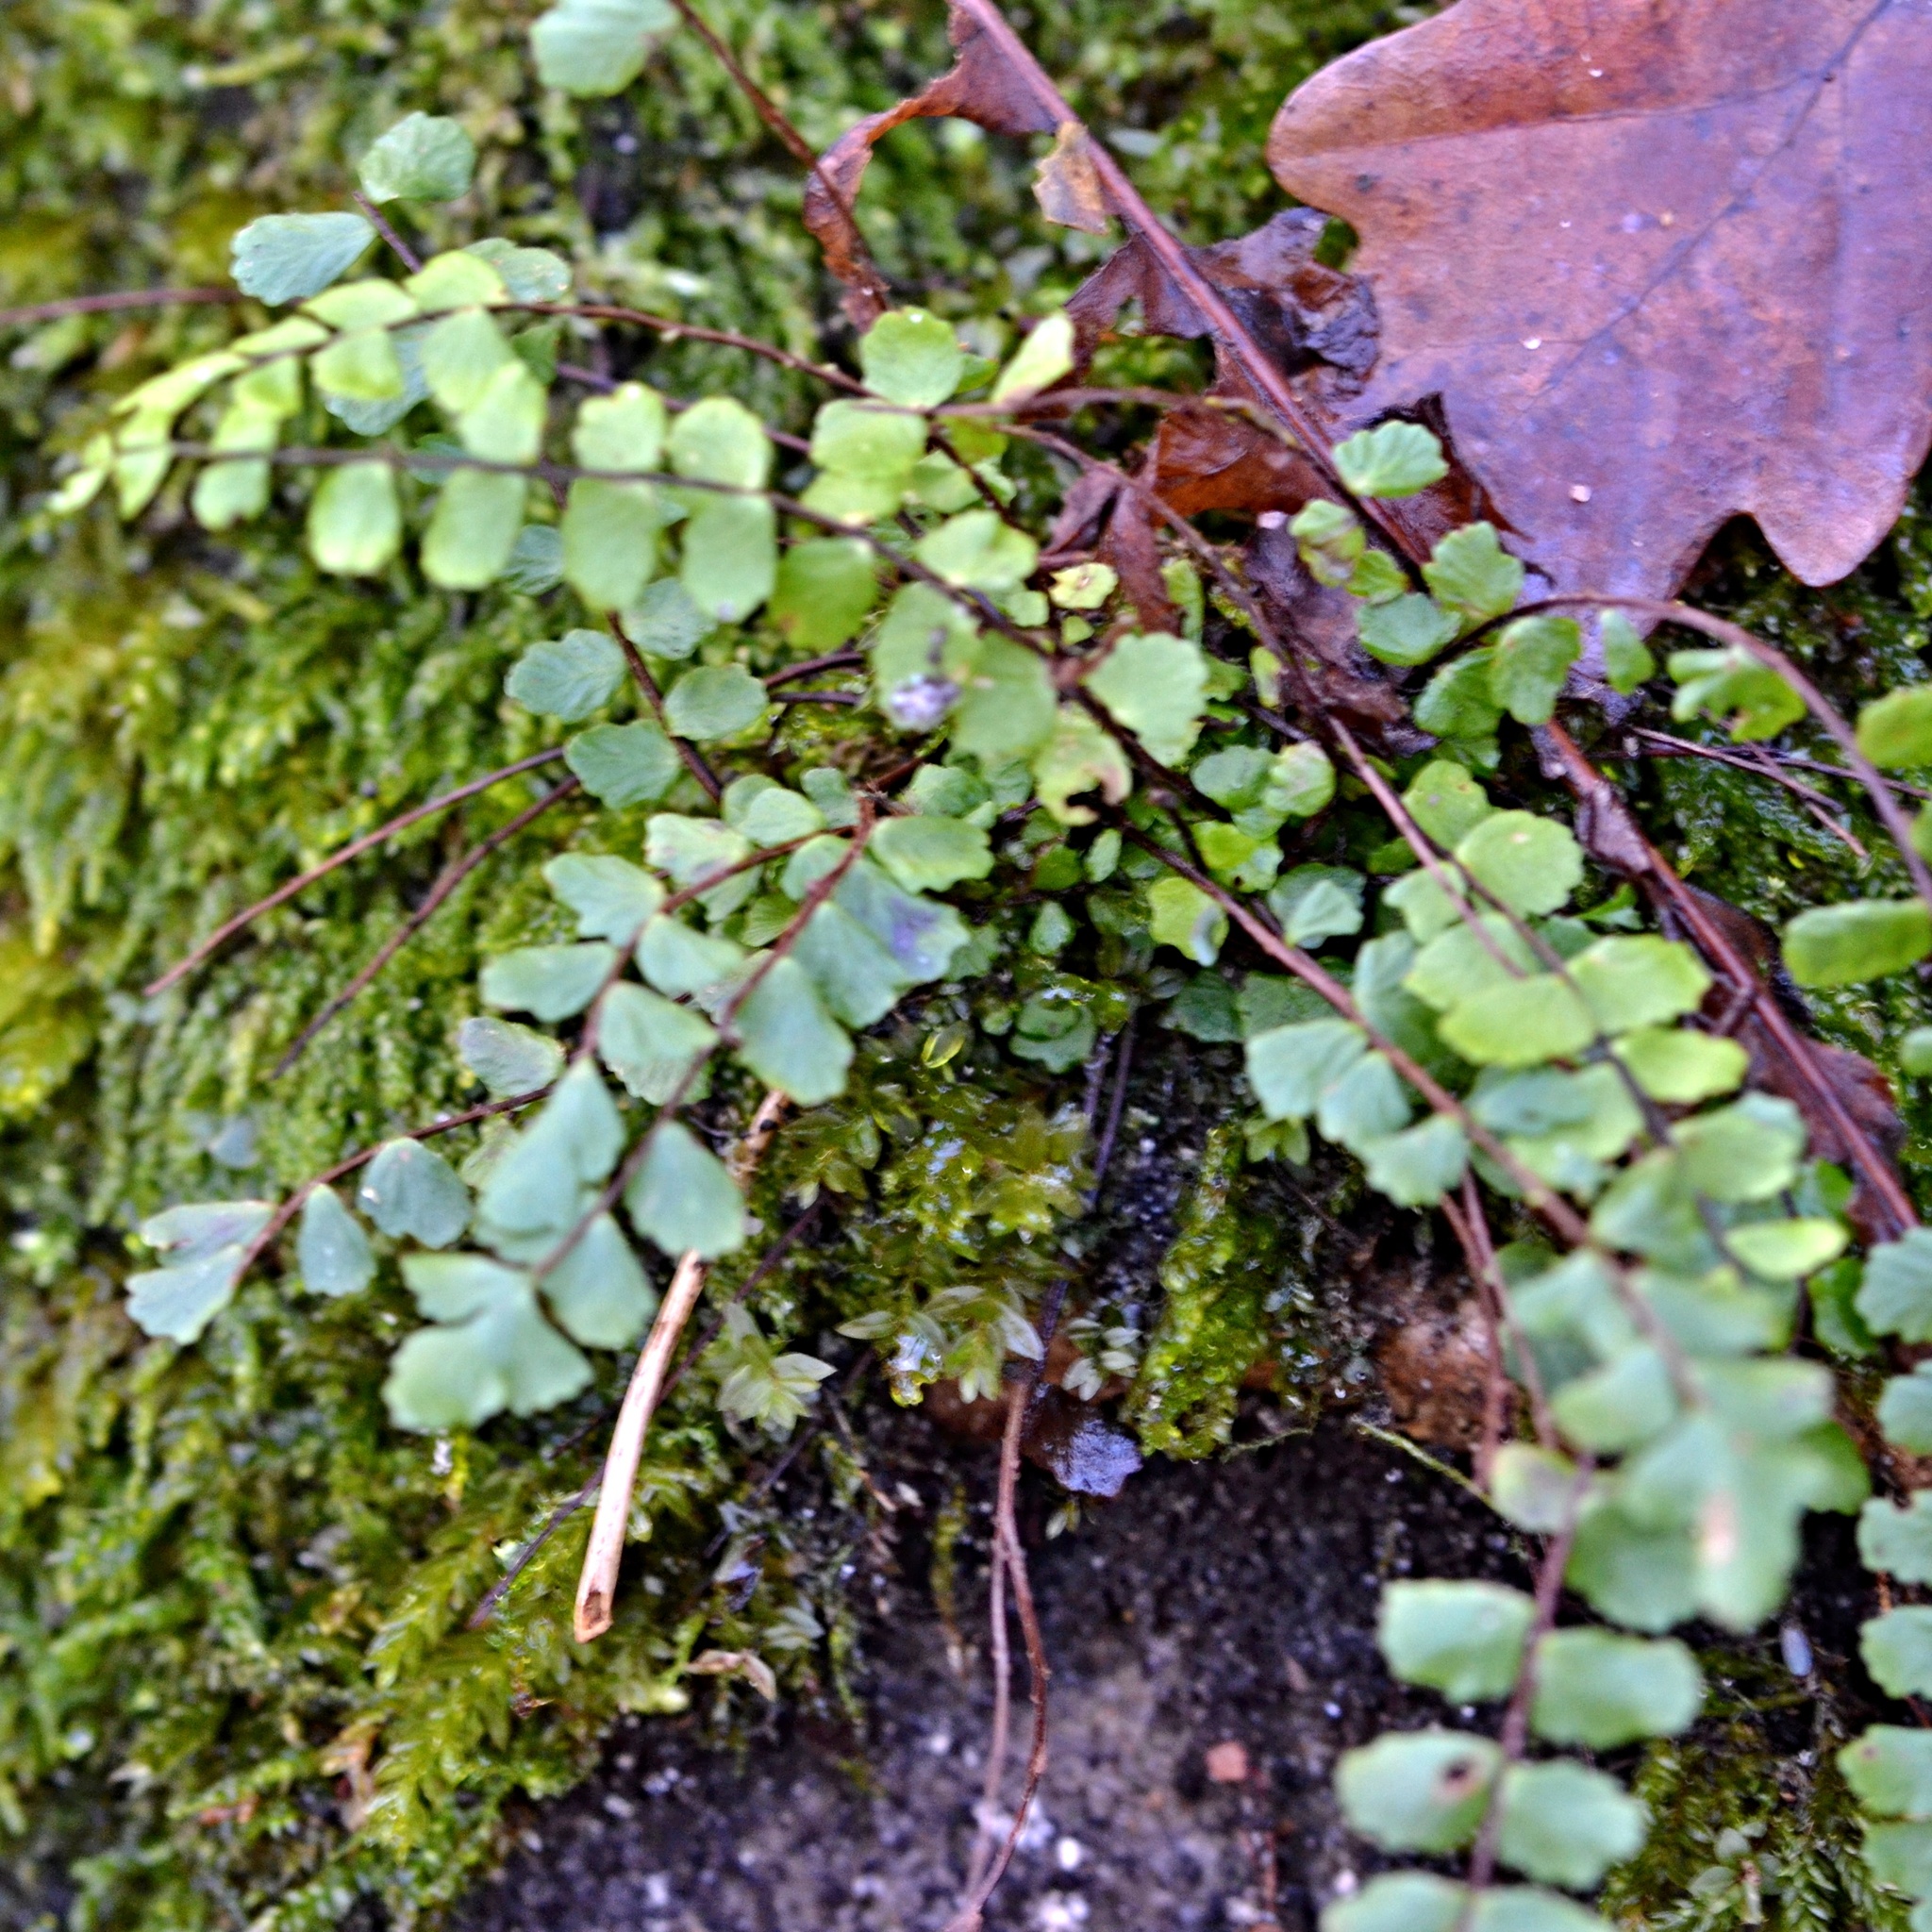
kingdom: Plantae
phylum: Tracheophyta
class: Polypodiopsida
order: Polypodiales
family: Aspleniaceae
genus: Asplenium
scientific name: Asplenium trichomanes
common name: Maidenhair spleenwort
